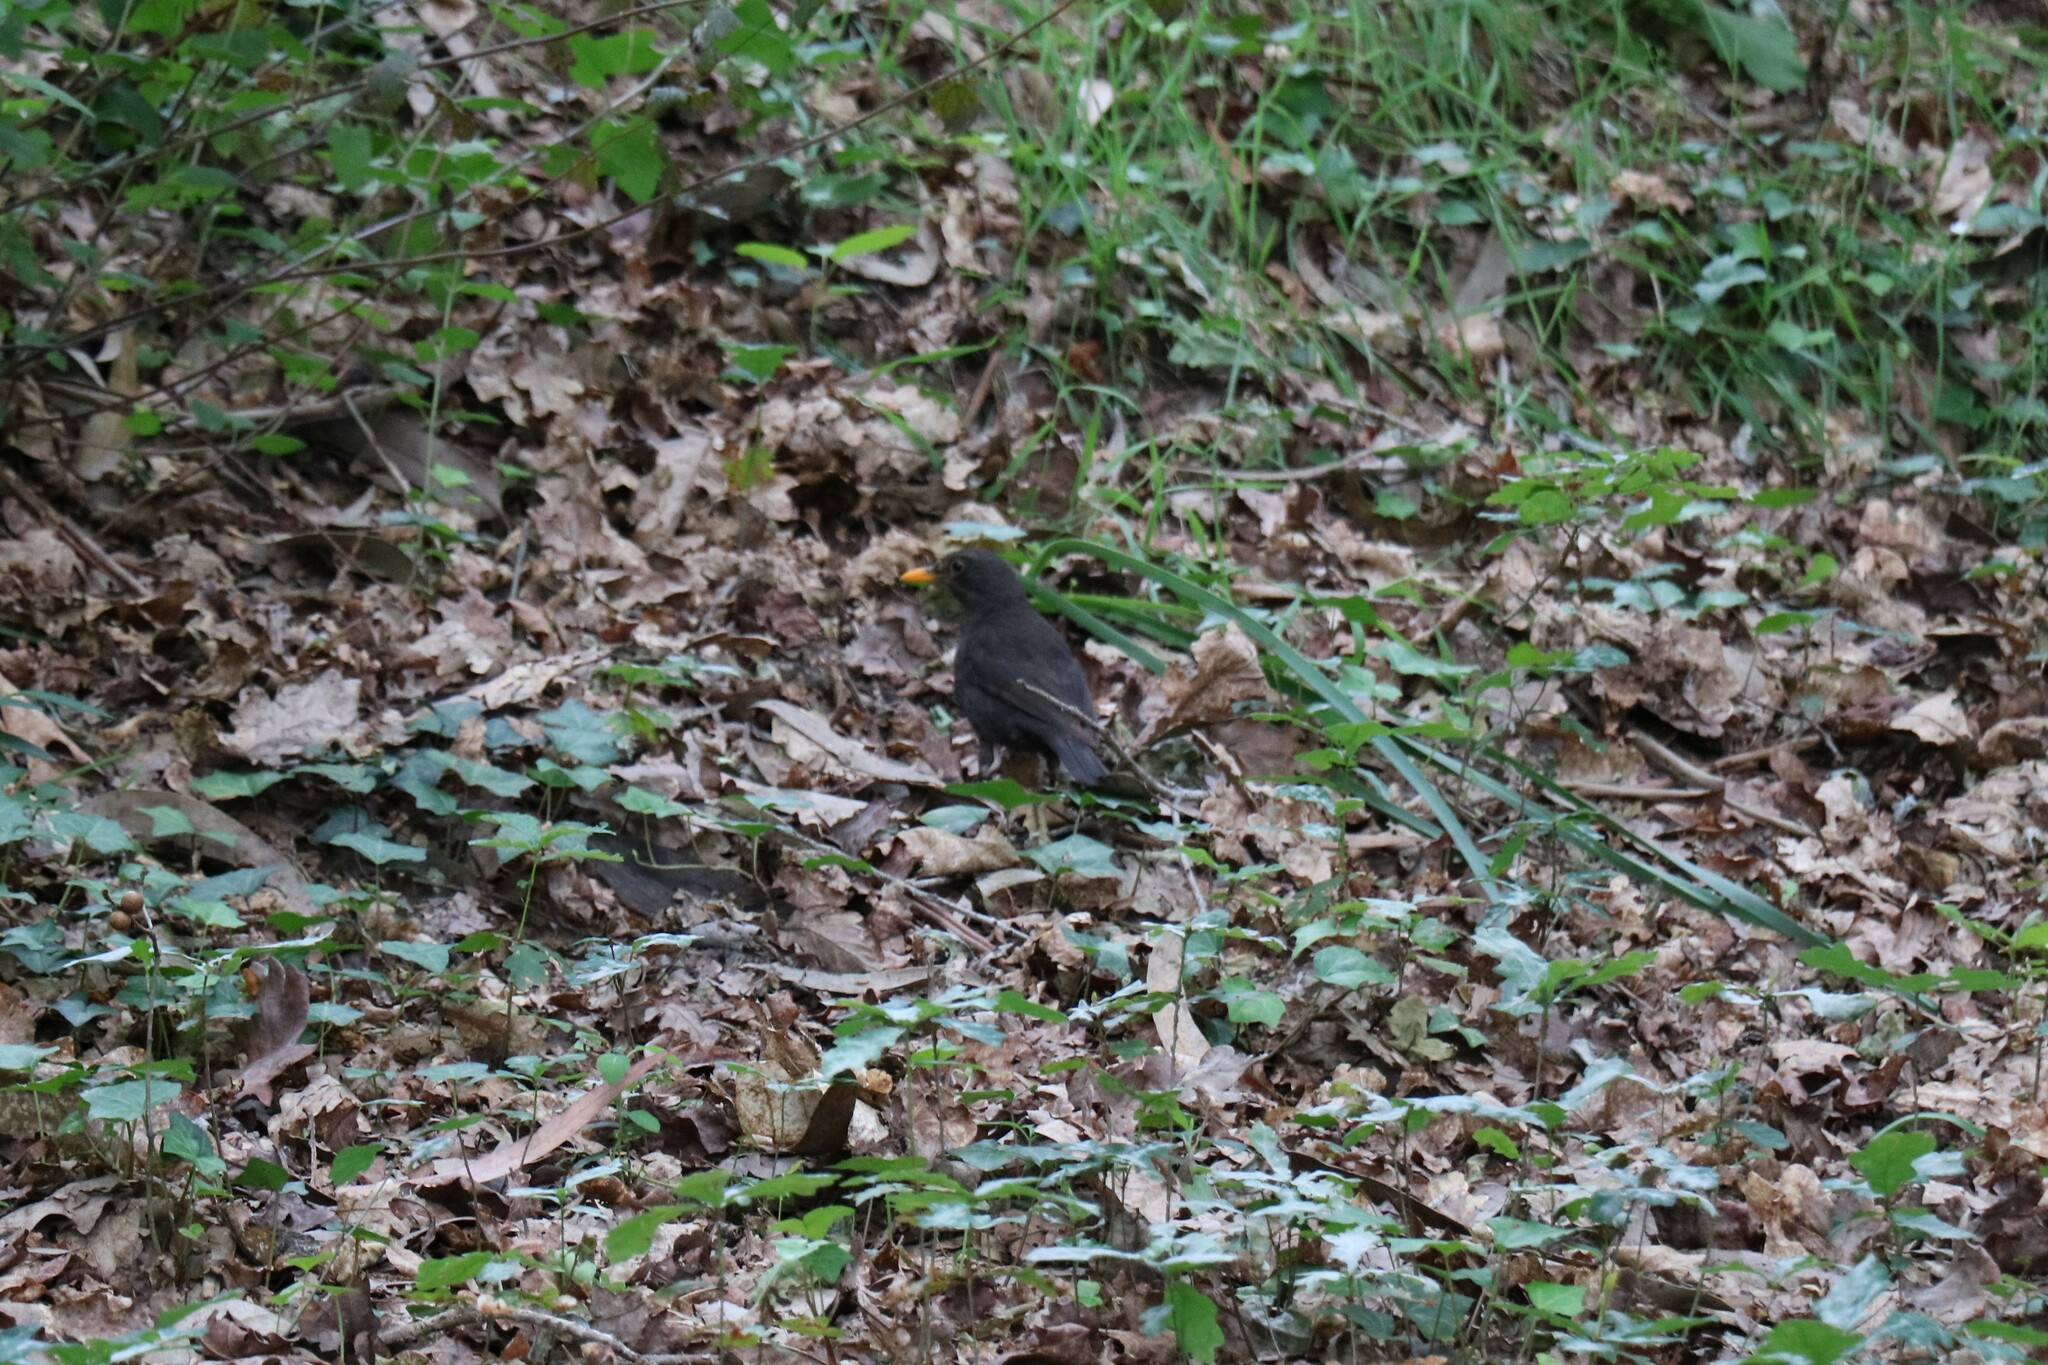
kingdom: Animalia
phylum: Chordata
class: Aves
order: Passeriformes
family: Turdidae
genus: Turdus
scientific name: Turdus merula
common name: Common blackbird
